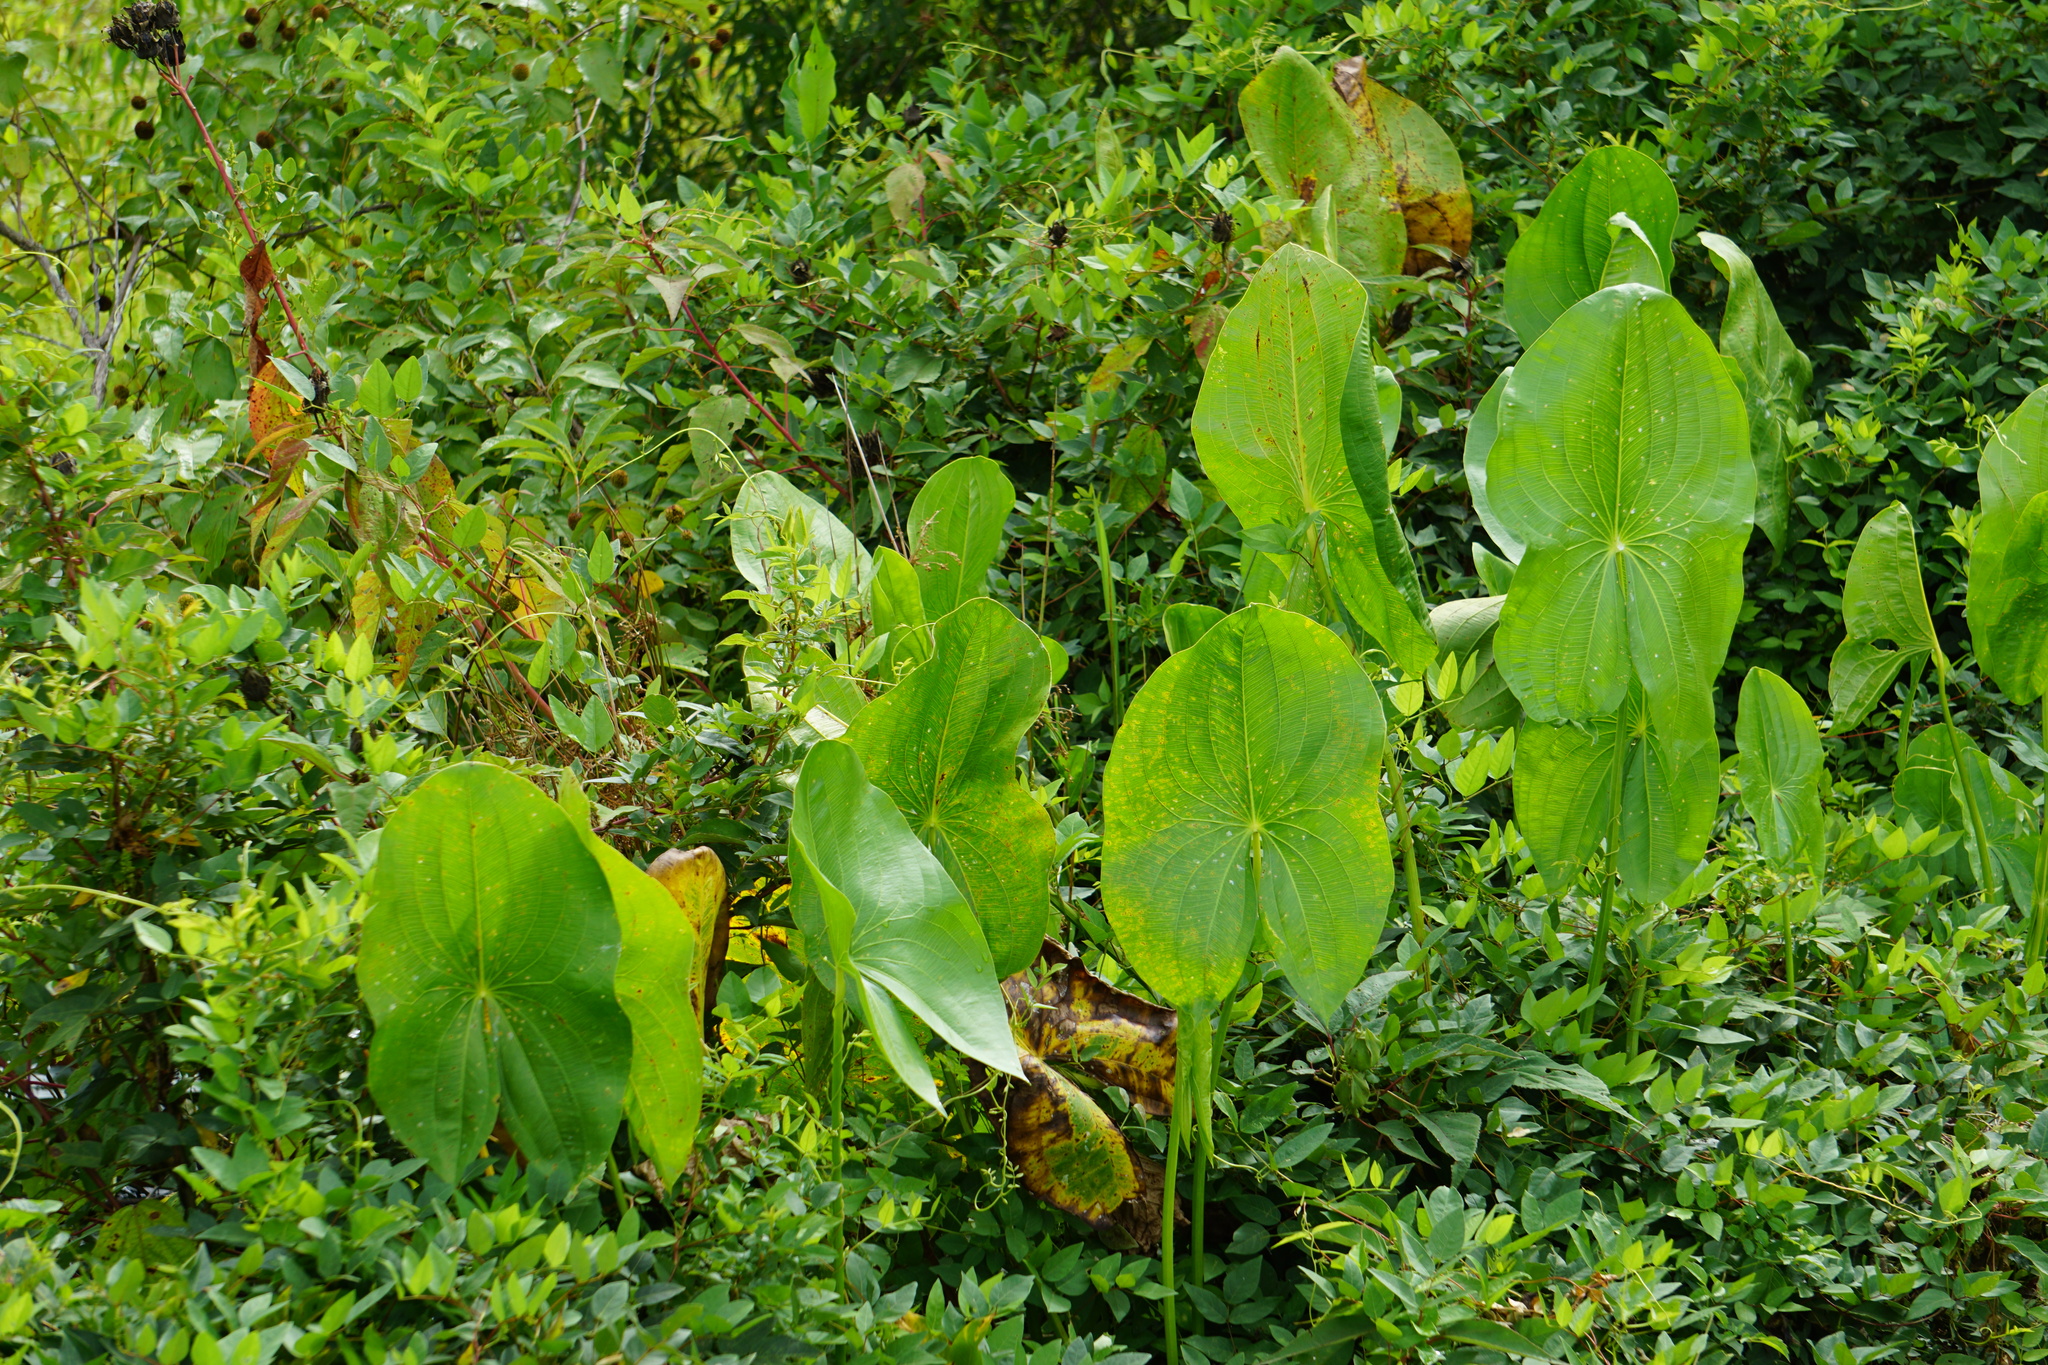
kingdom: Plantae
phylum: Tracheophyta
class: Liliopsida
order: Alismatales
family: Alismataceae
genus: Sagittaria
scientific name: Sagittaria latifolia
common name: Duck-potato
